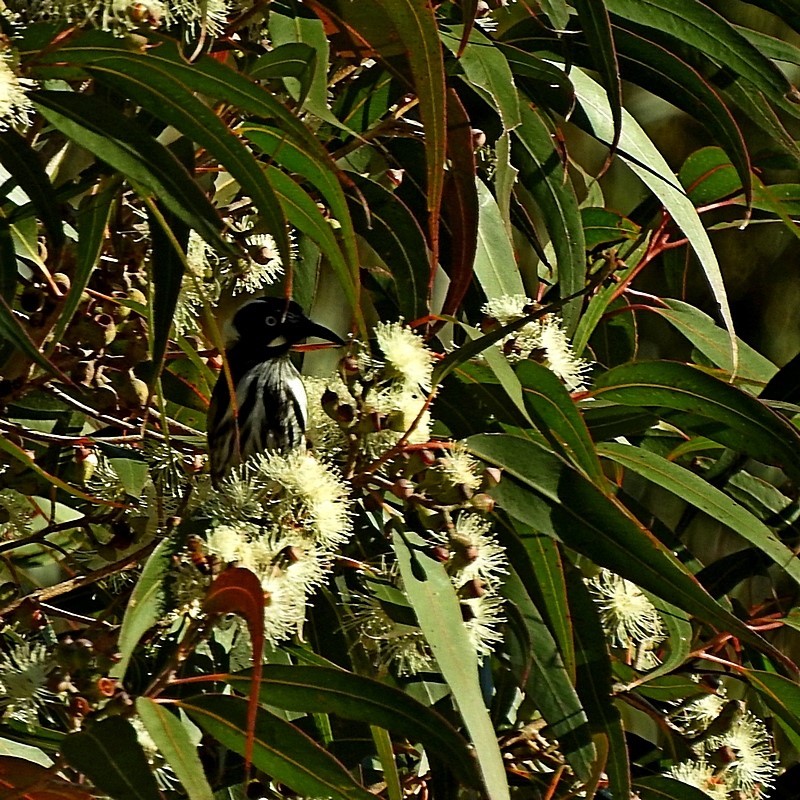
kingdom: Animalia
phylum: Chordata
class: Aves
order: Passeriformes
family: Meliphagidae
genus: Phylidonyris
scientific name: Phylidonyris novaehollandiae
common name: New holland honeyeater
